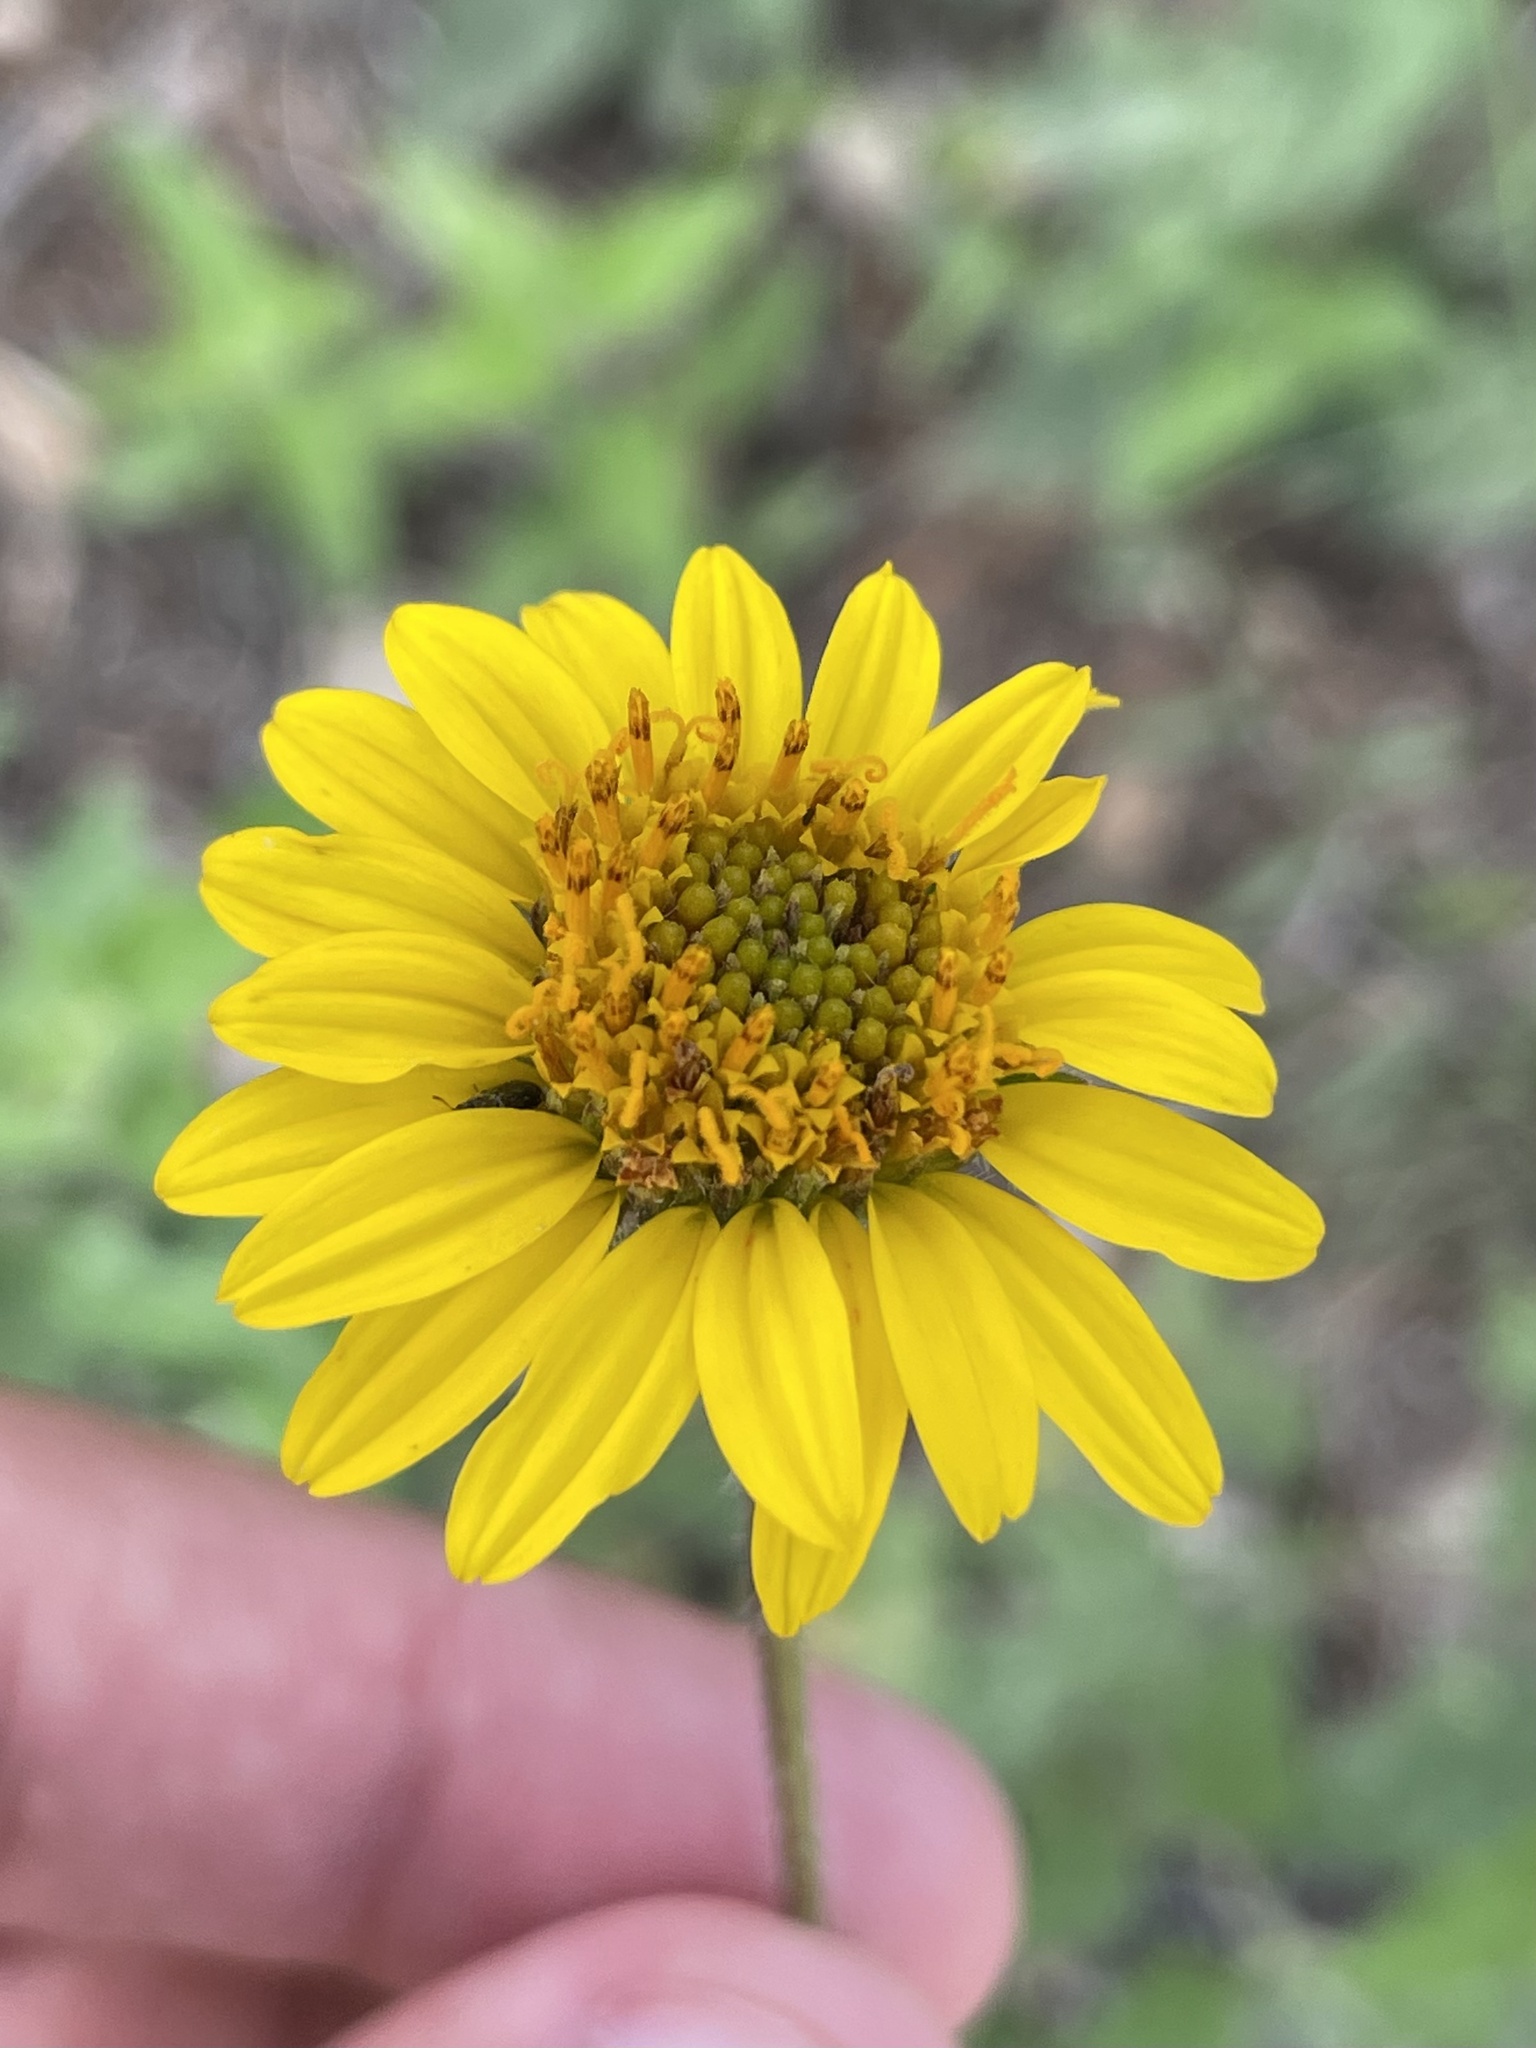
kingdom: Plantae
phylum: Tracheophyta
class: Magnoliopsida
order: Asterales
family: Asteraceae
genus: Simsia
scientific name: Simsia calva
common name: Awnless bush-sunflower
